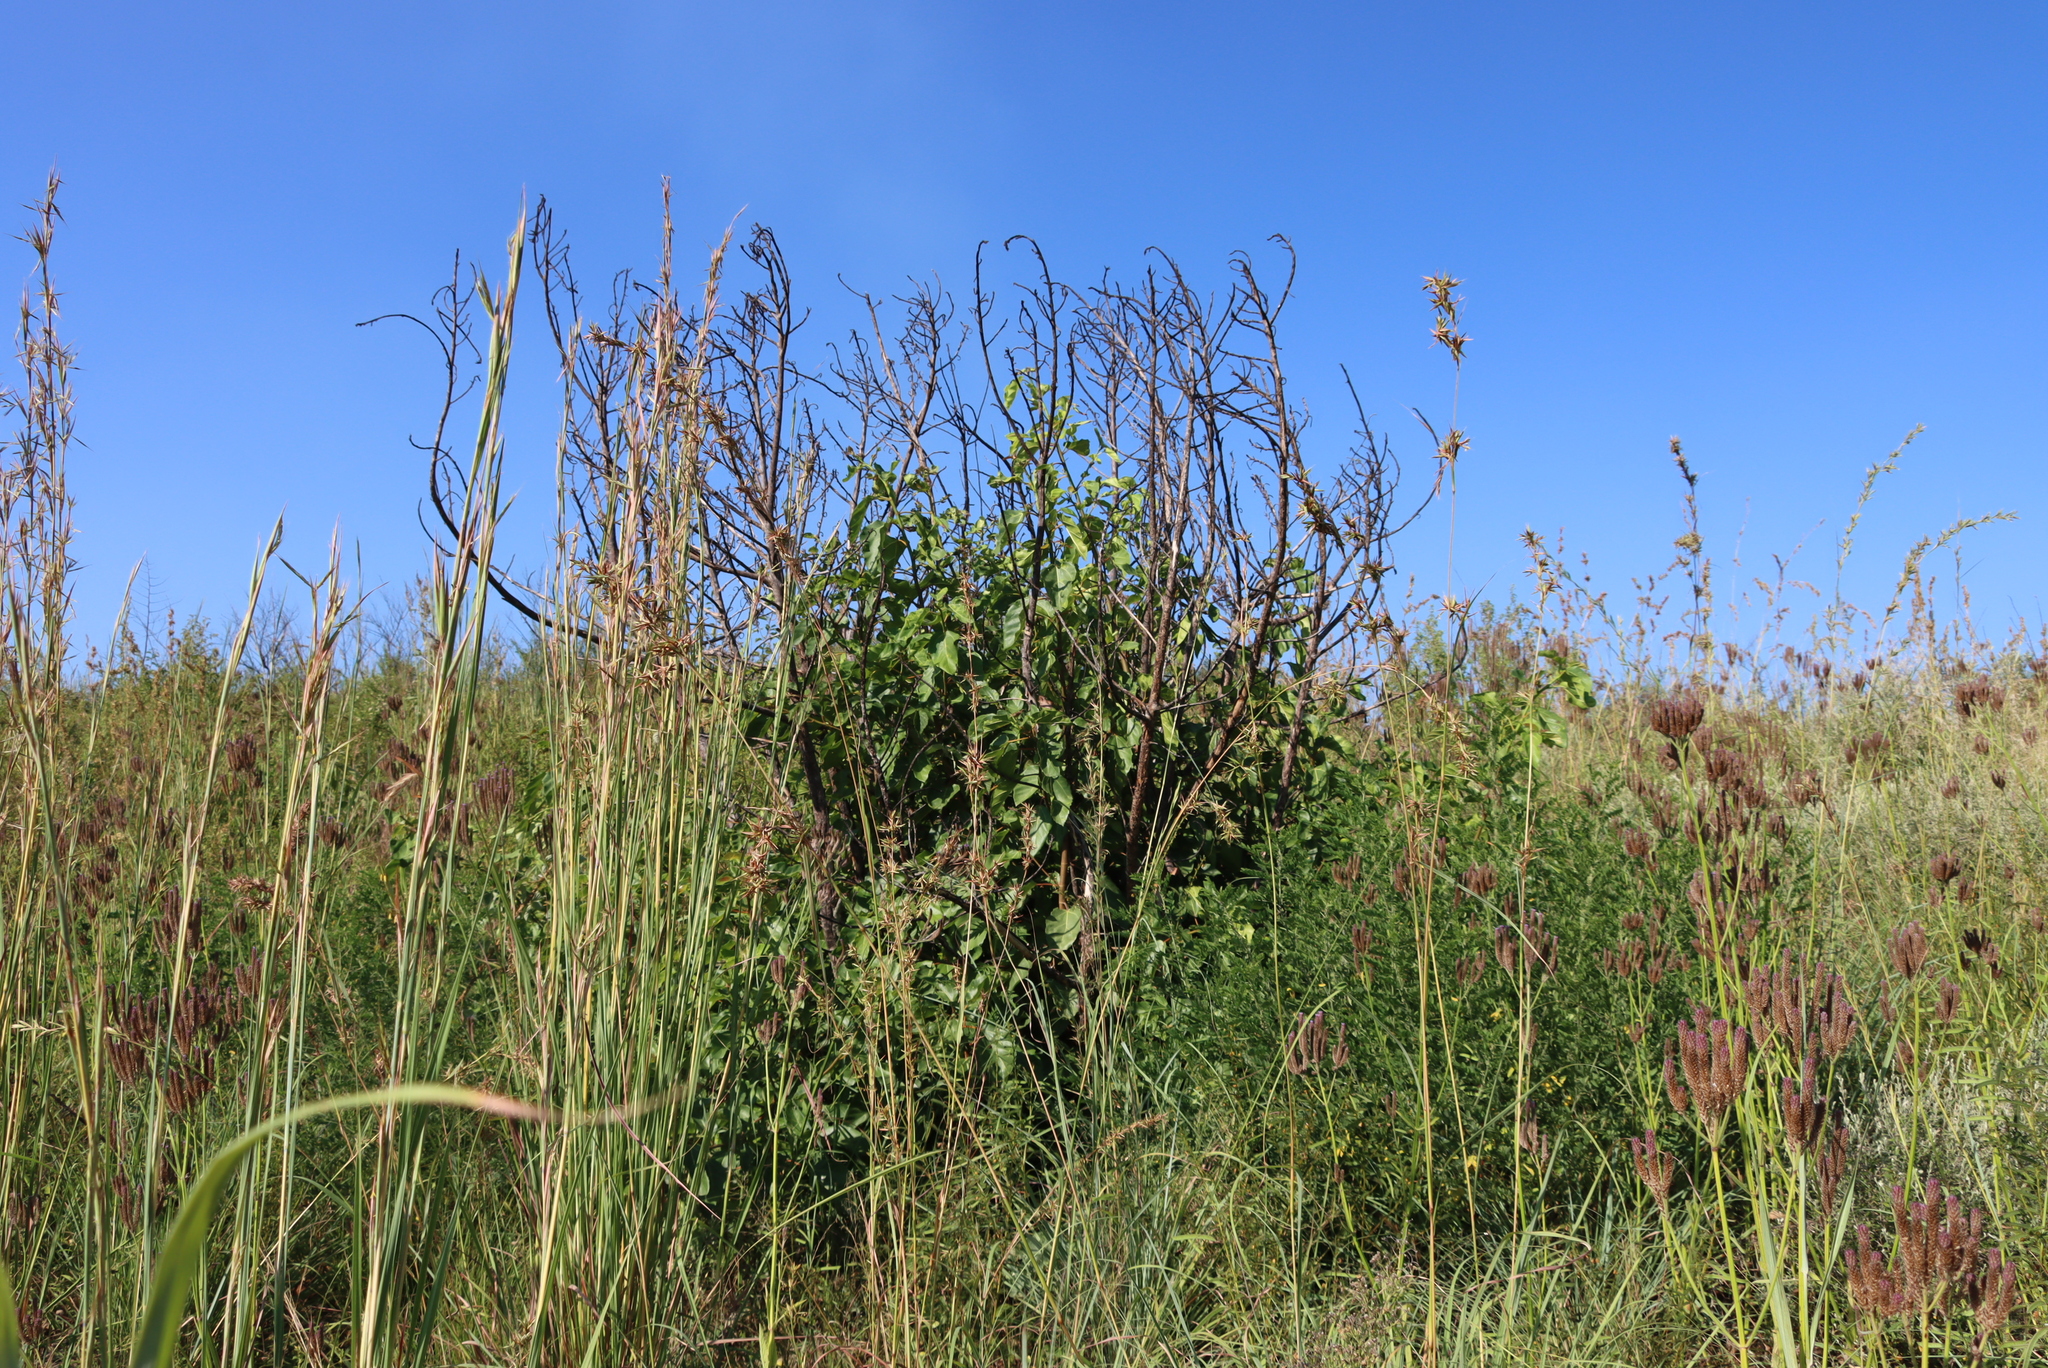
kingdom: Plantae
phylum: Tracheophyta
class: Magnoliopsida
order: Rosales
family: Moraceae
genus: Ficus
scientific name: Ficus sur
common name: Cape fig
